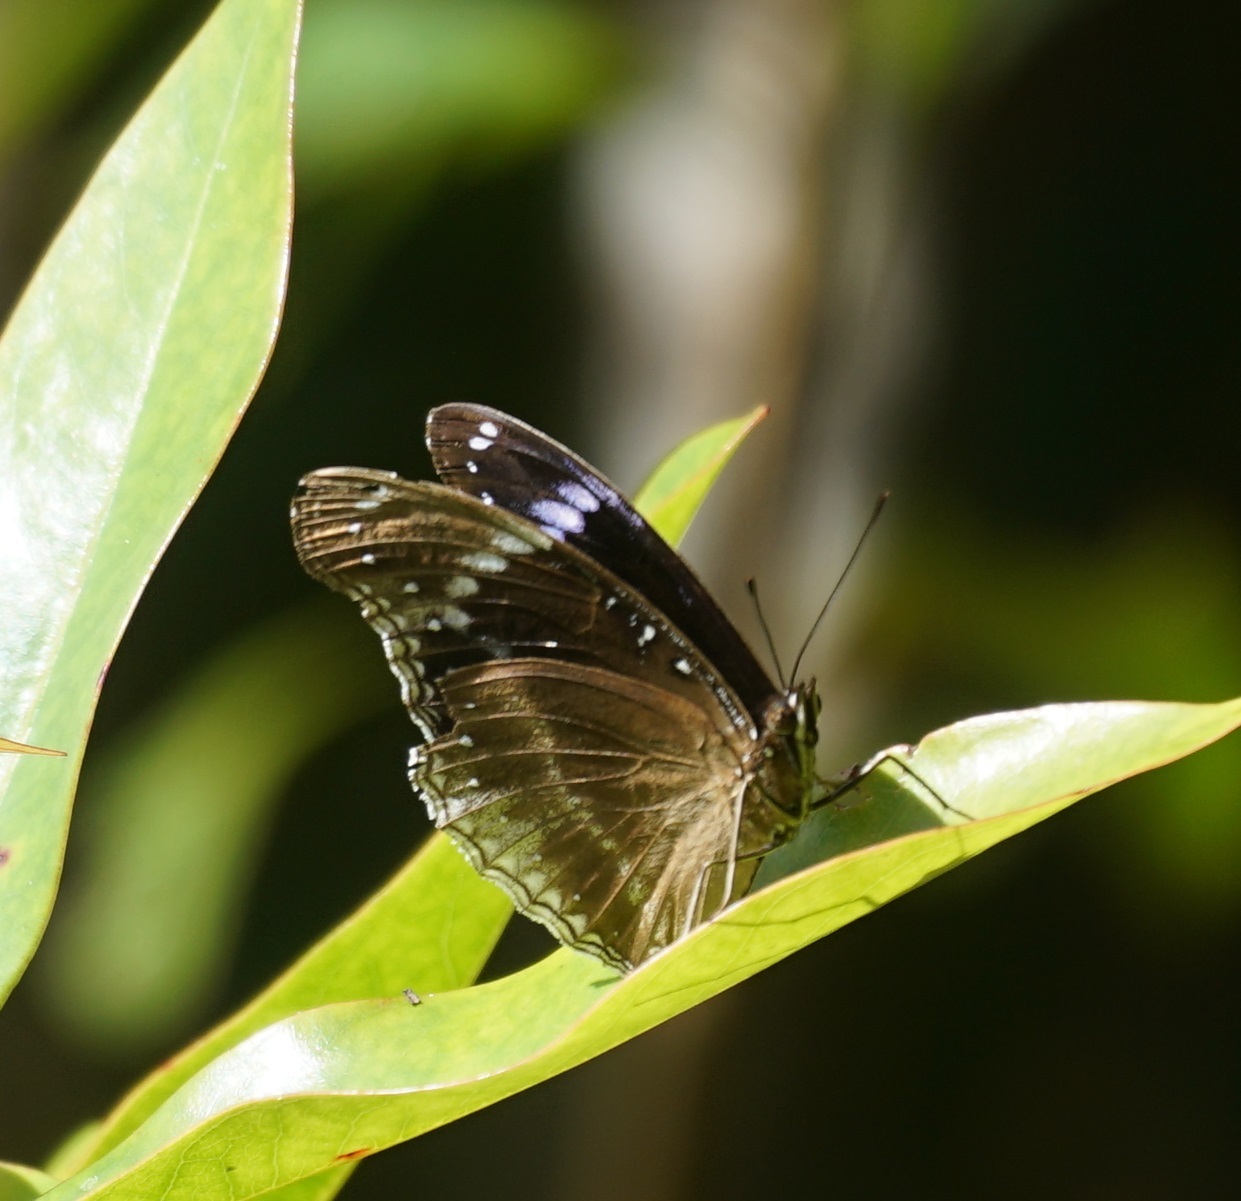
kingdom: Animalia
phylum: Arthropoda
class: Insecta
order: Lepidoptera
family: Nymphalidae
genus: Hypolimnas
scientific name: Hypolimnas alimena
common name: Blue-banded eggfly
